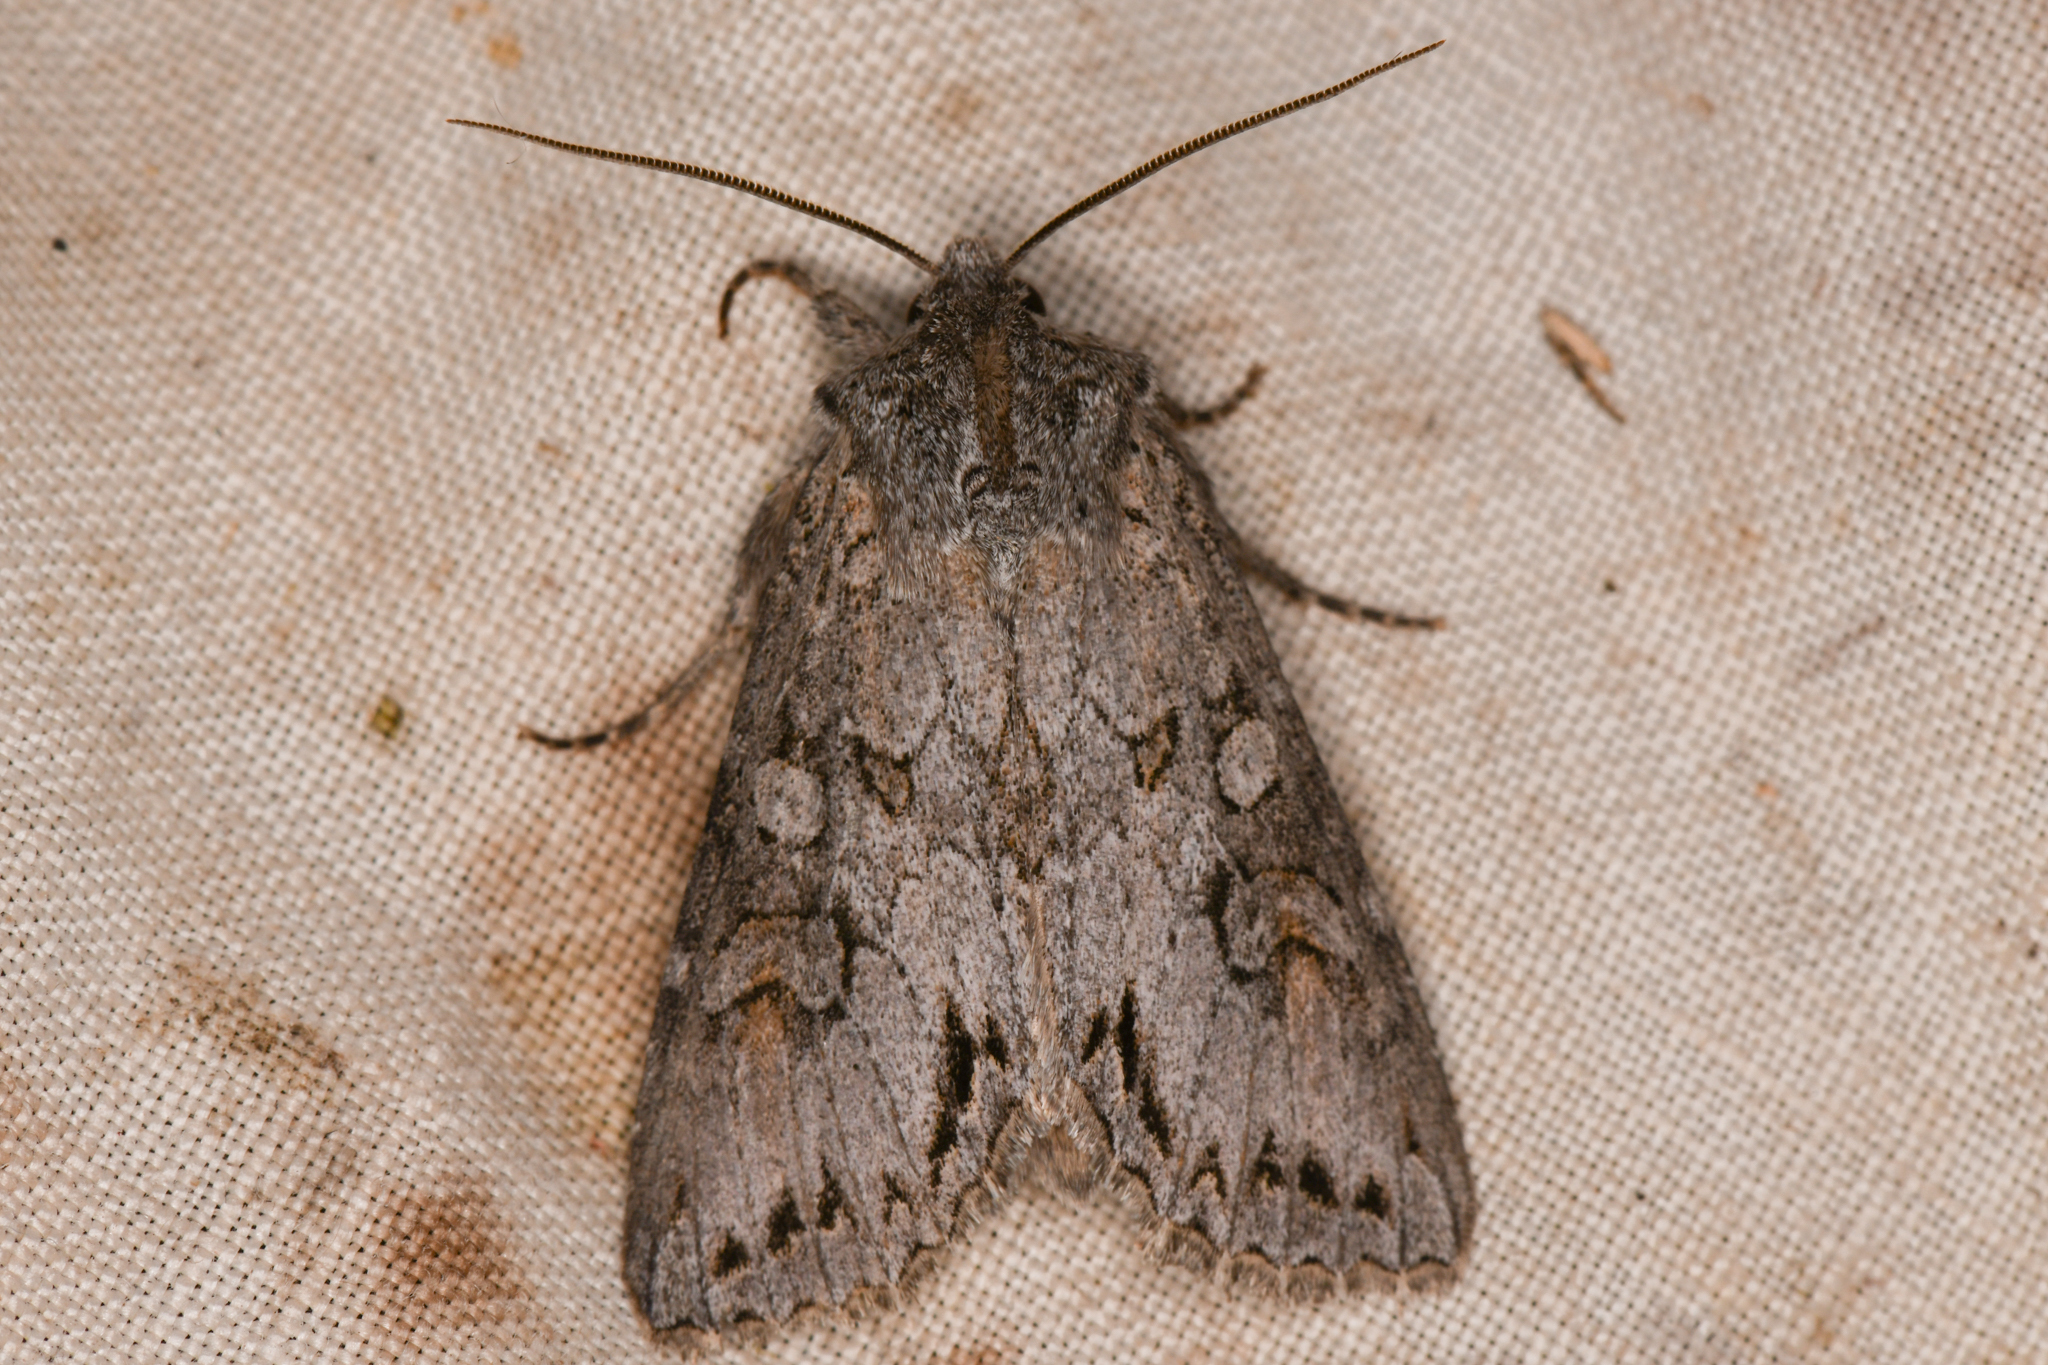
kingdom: Animalia
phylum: Arthropoda
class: Insecta
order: Lepidoptera
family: Noctuidae
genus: Polia
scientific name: Polia purpurissata
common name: Purple arches moth
